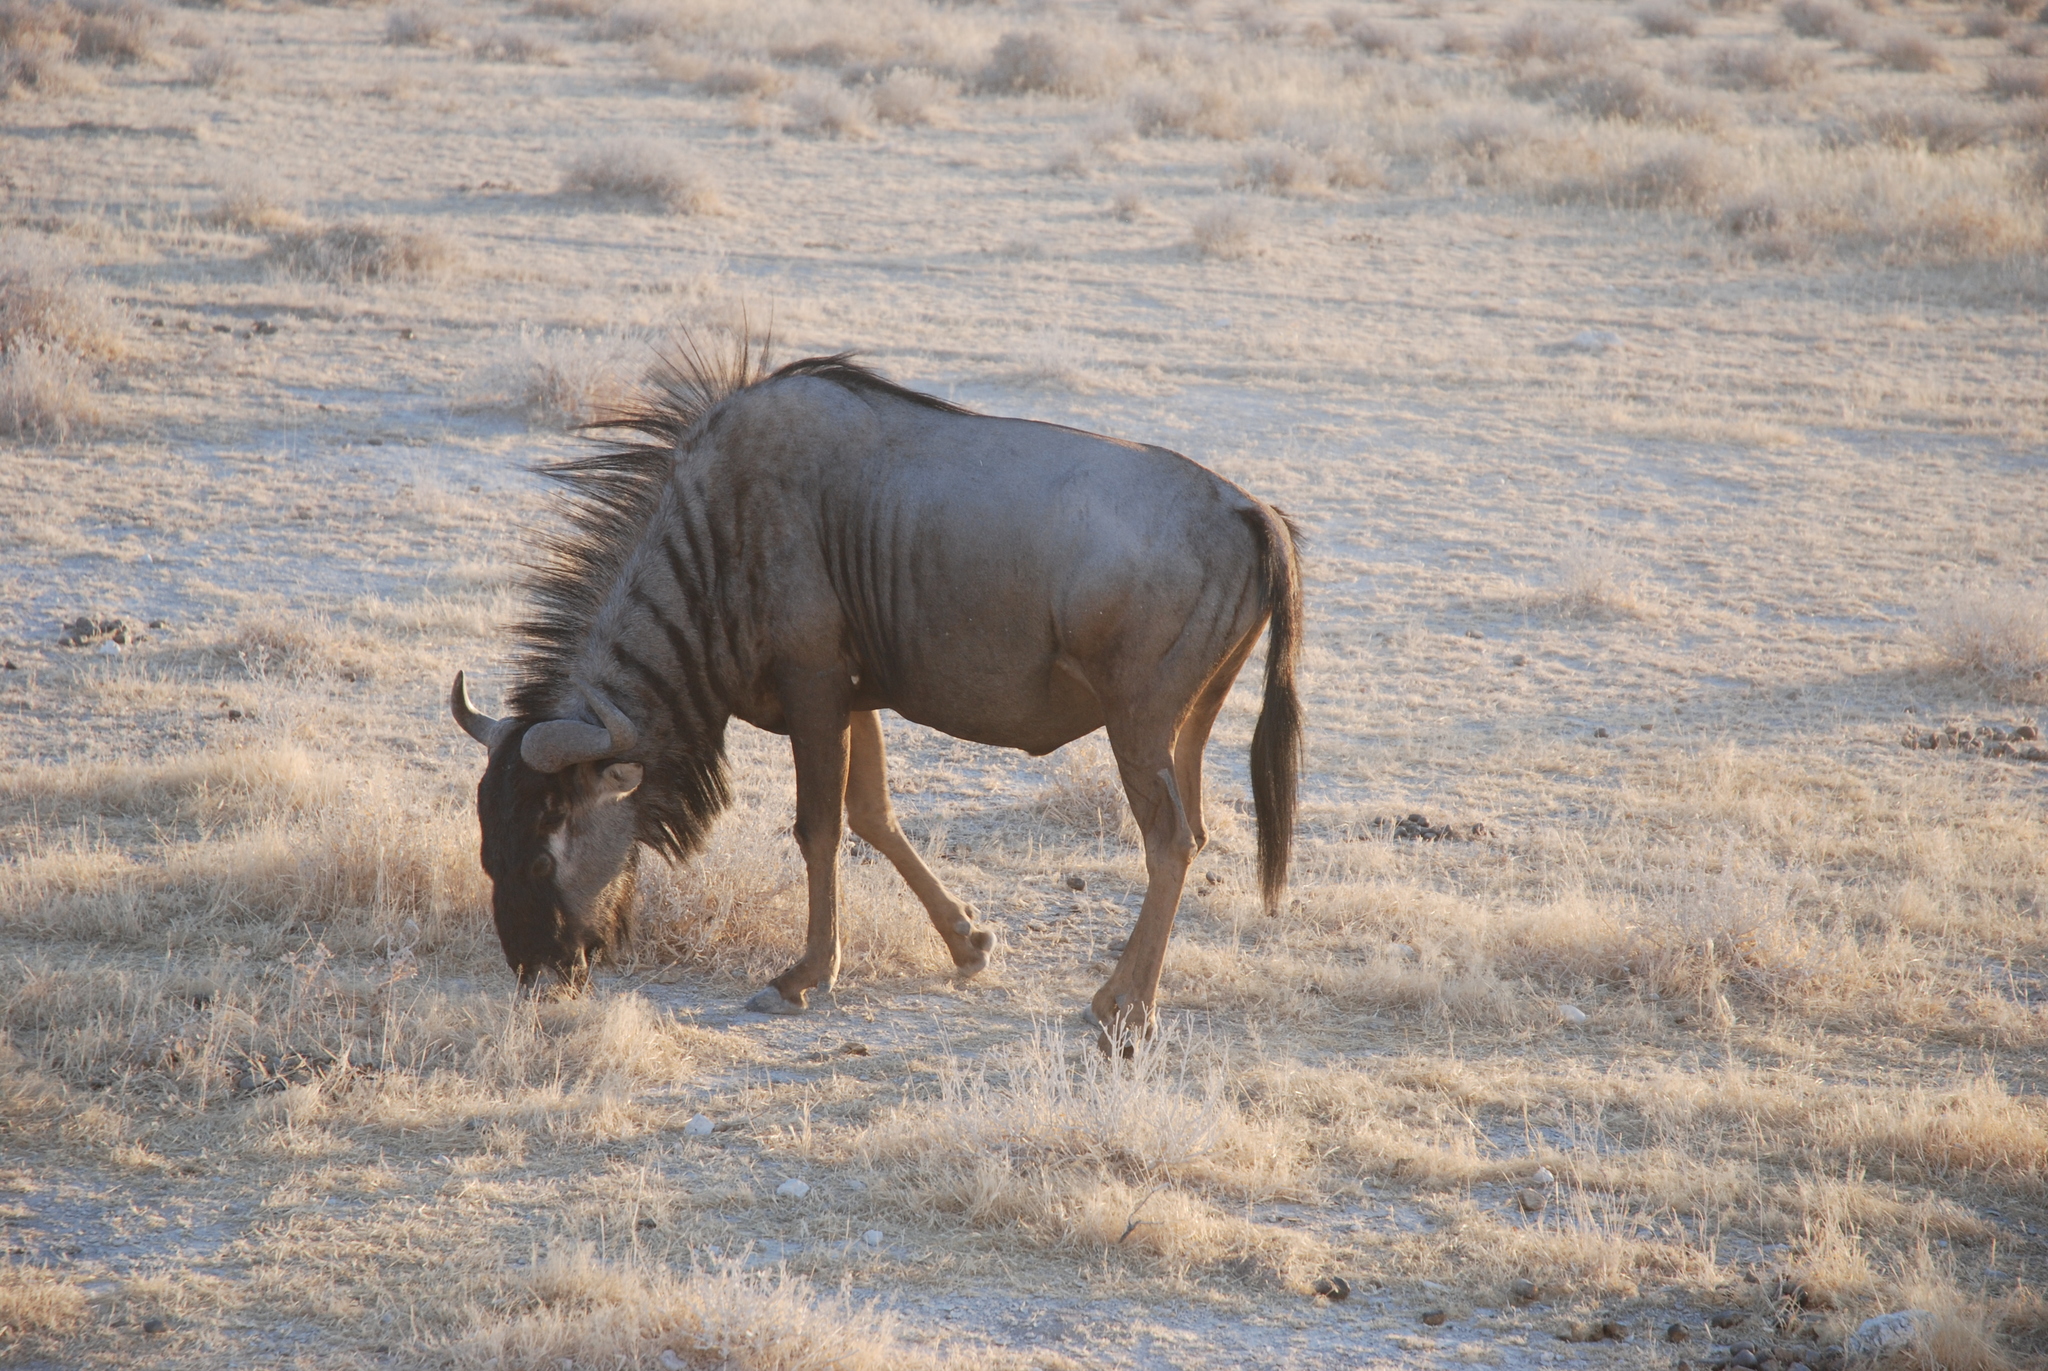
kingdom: Animalia
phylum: Chordata
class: Mammalia
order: Artiodactyla
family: Bovidae
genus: Connochaetes
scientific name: Connochaetes taurinus
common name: Blue wildebeest
